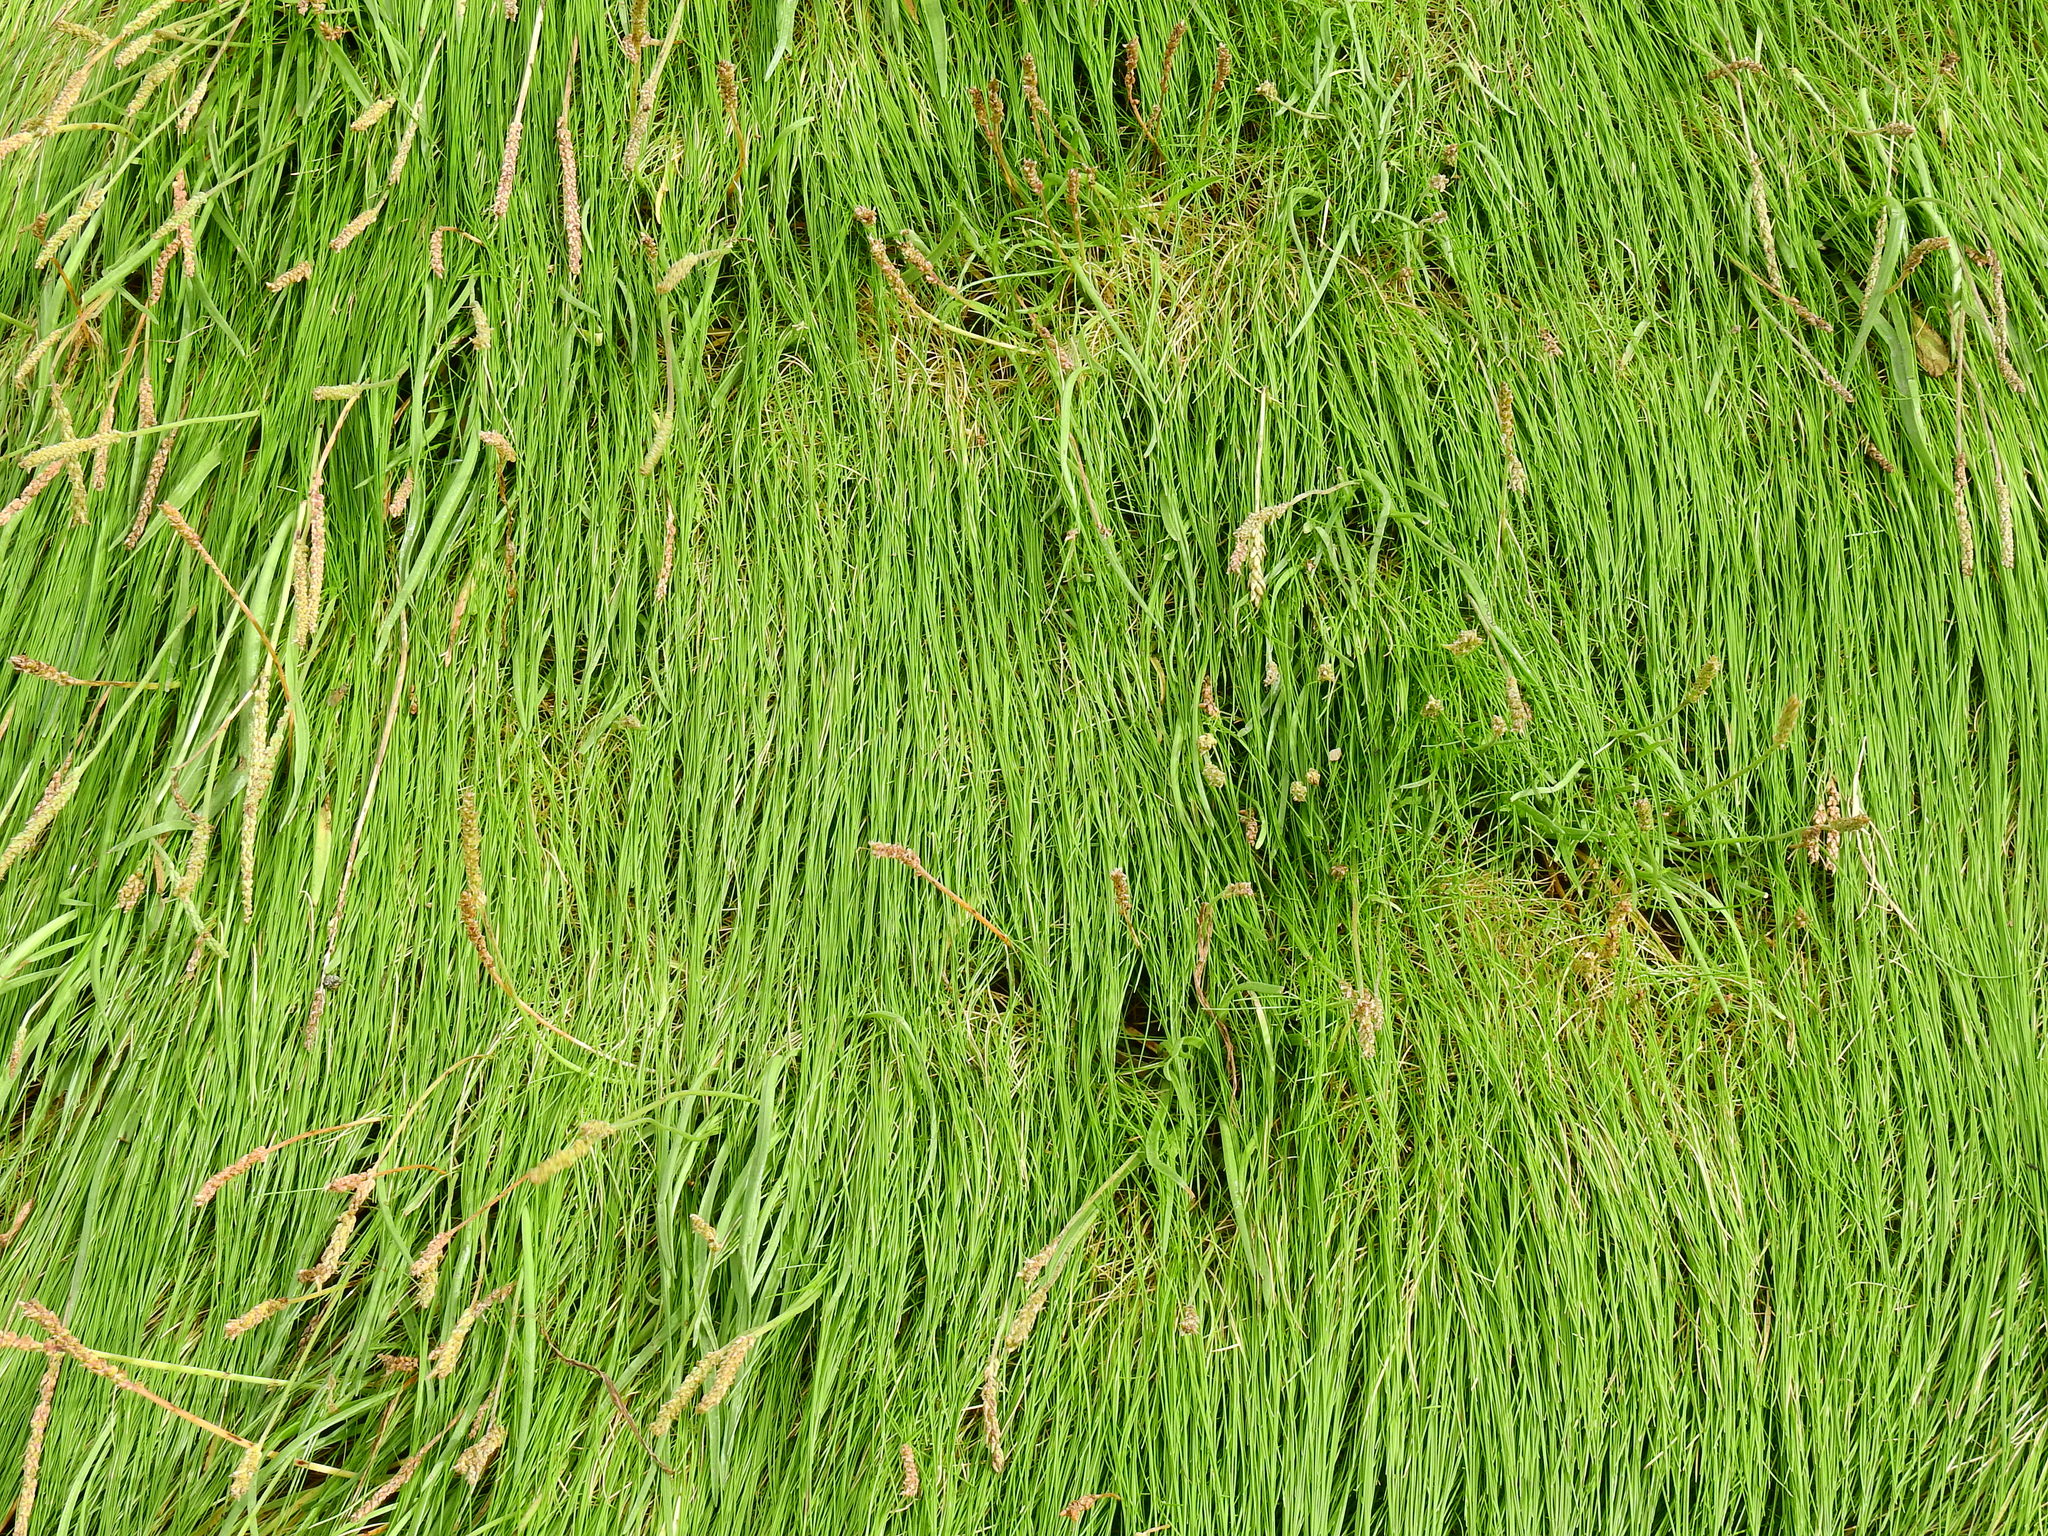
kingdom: Plantae
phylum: Tracheophyta
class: Liliopsida
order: Alismatales
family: Juncaginaceae
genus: Triglochin
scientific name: Triglochin maritima
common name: Sea arrowgrass
